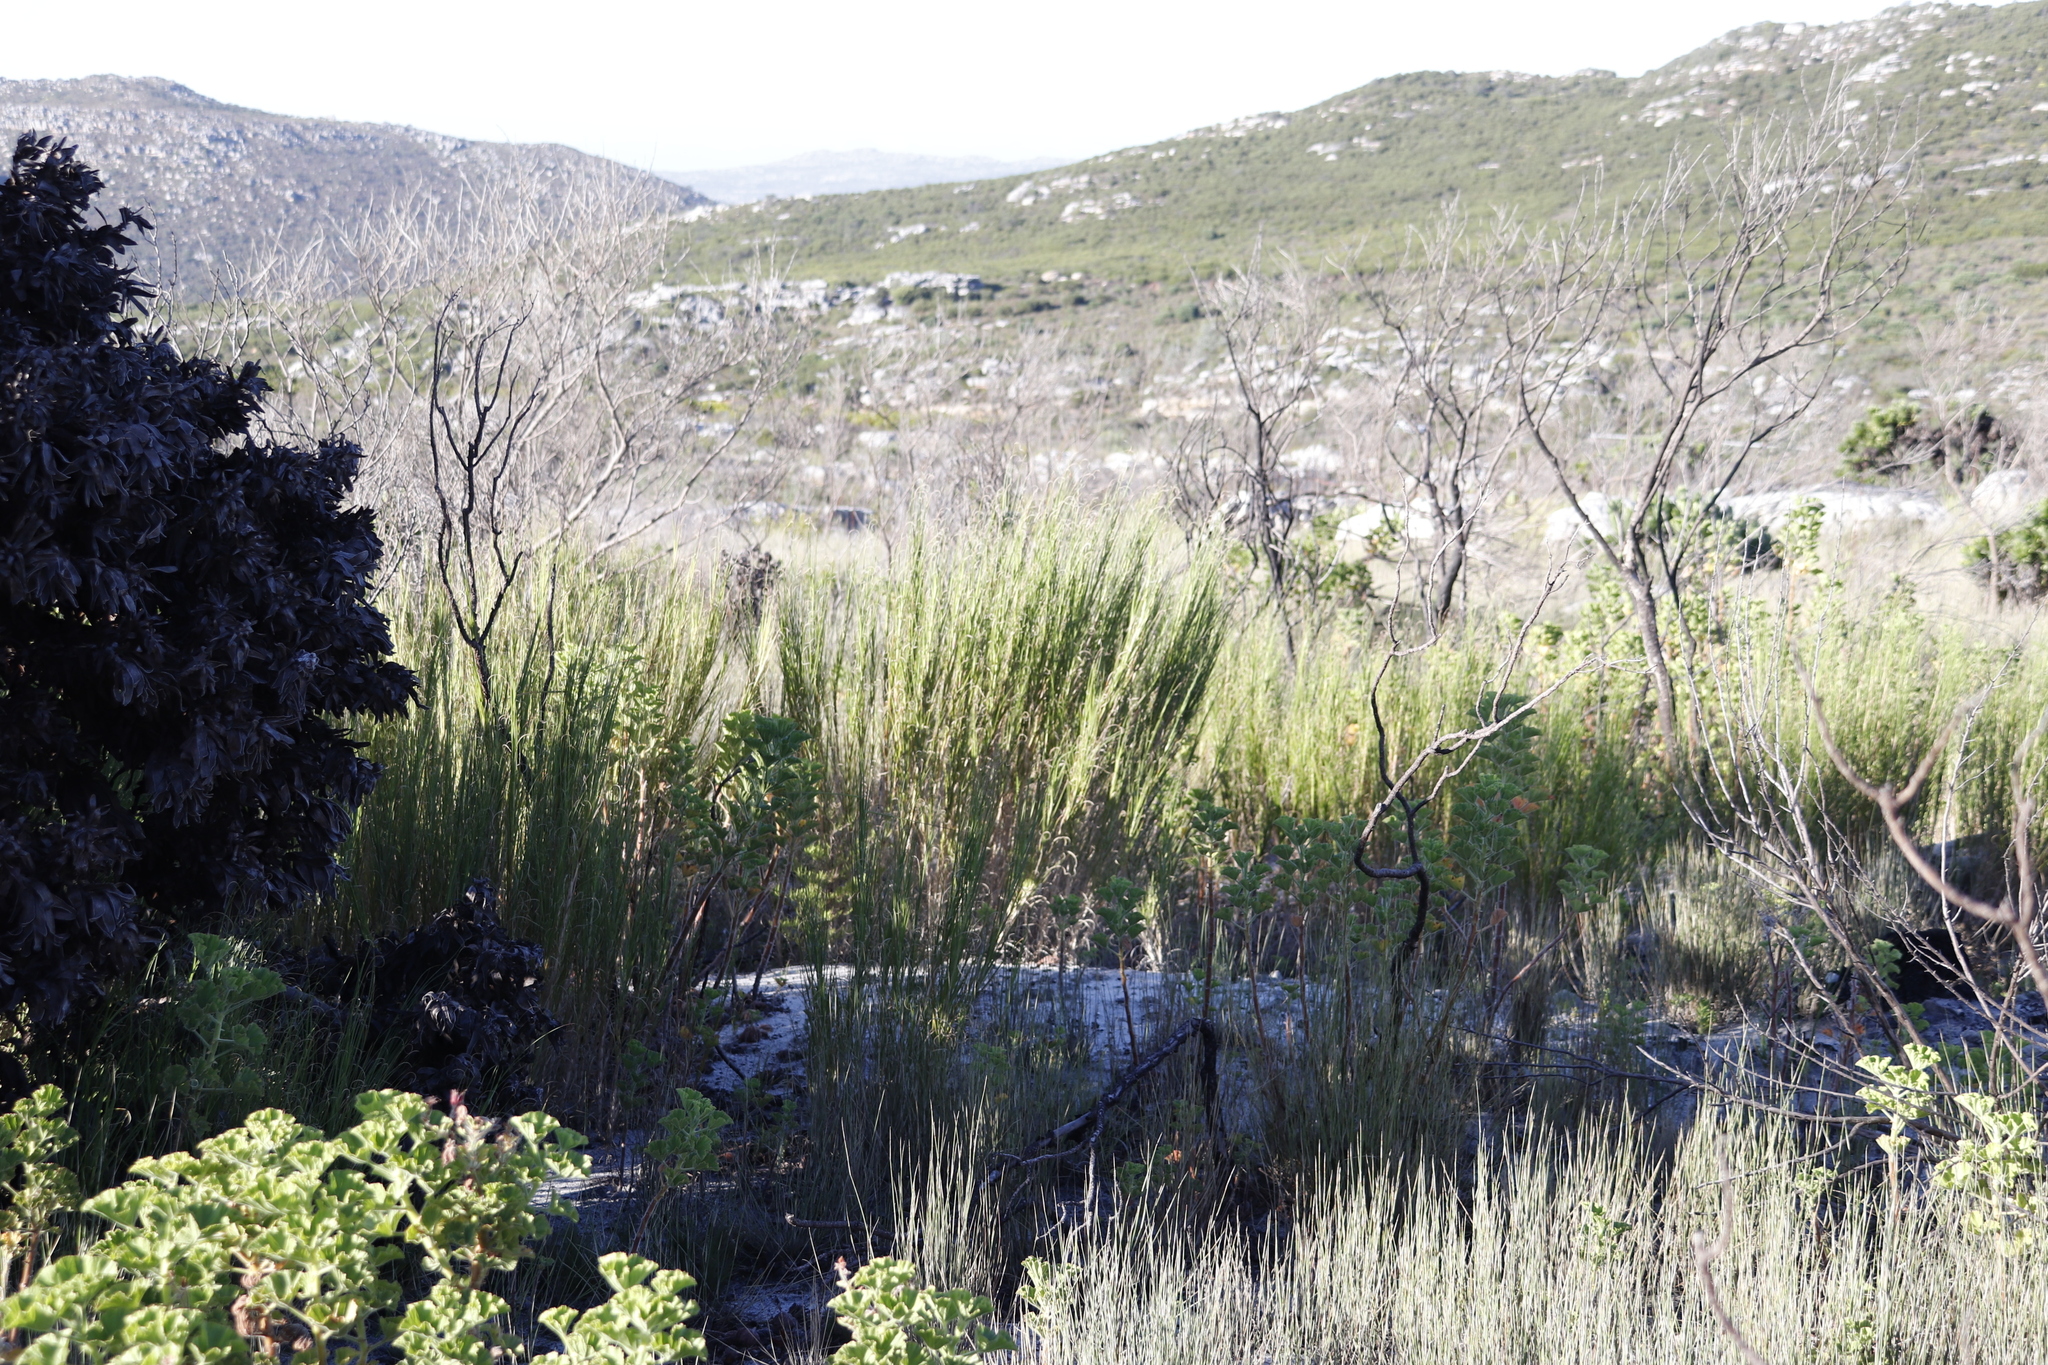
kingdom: Plantae
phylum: Tracheophyta
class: Liliopsida
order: Poales
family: Poaceae
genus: Pseudopentameris
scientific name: Pseudopentameris macrantha
